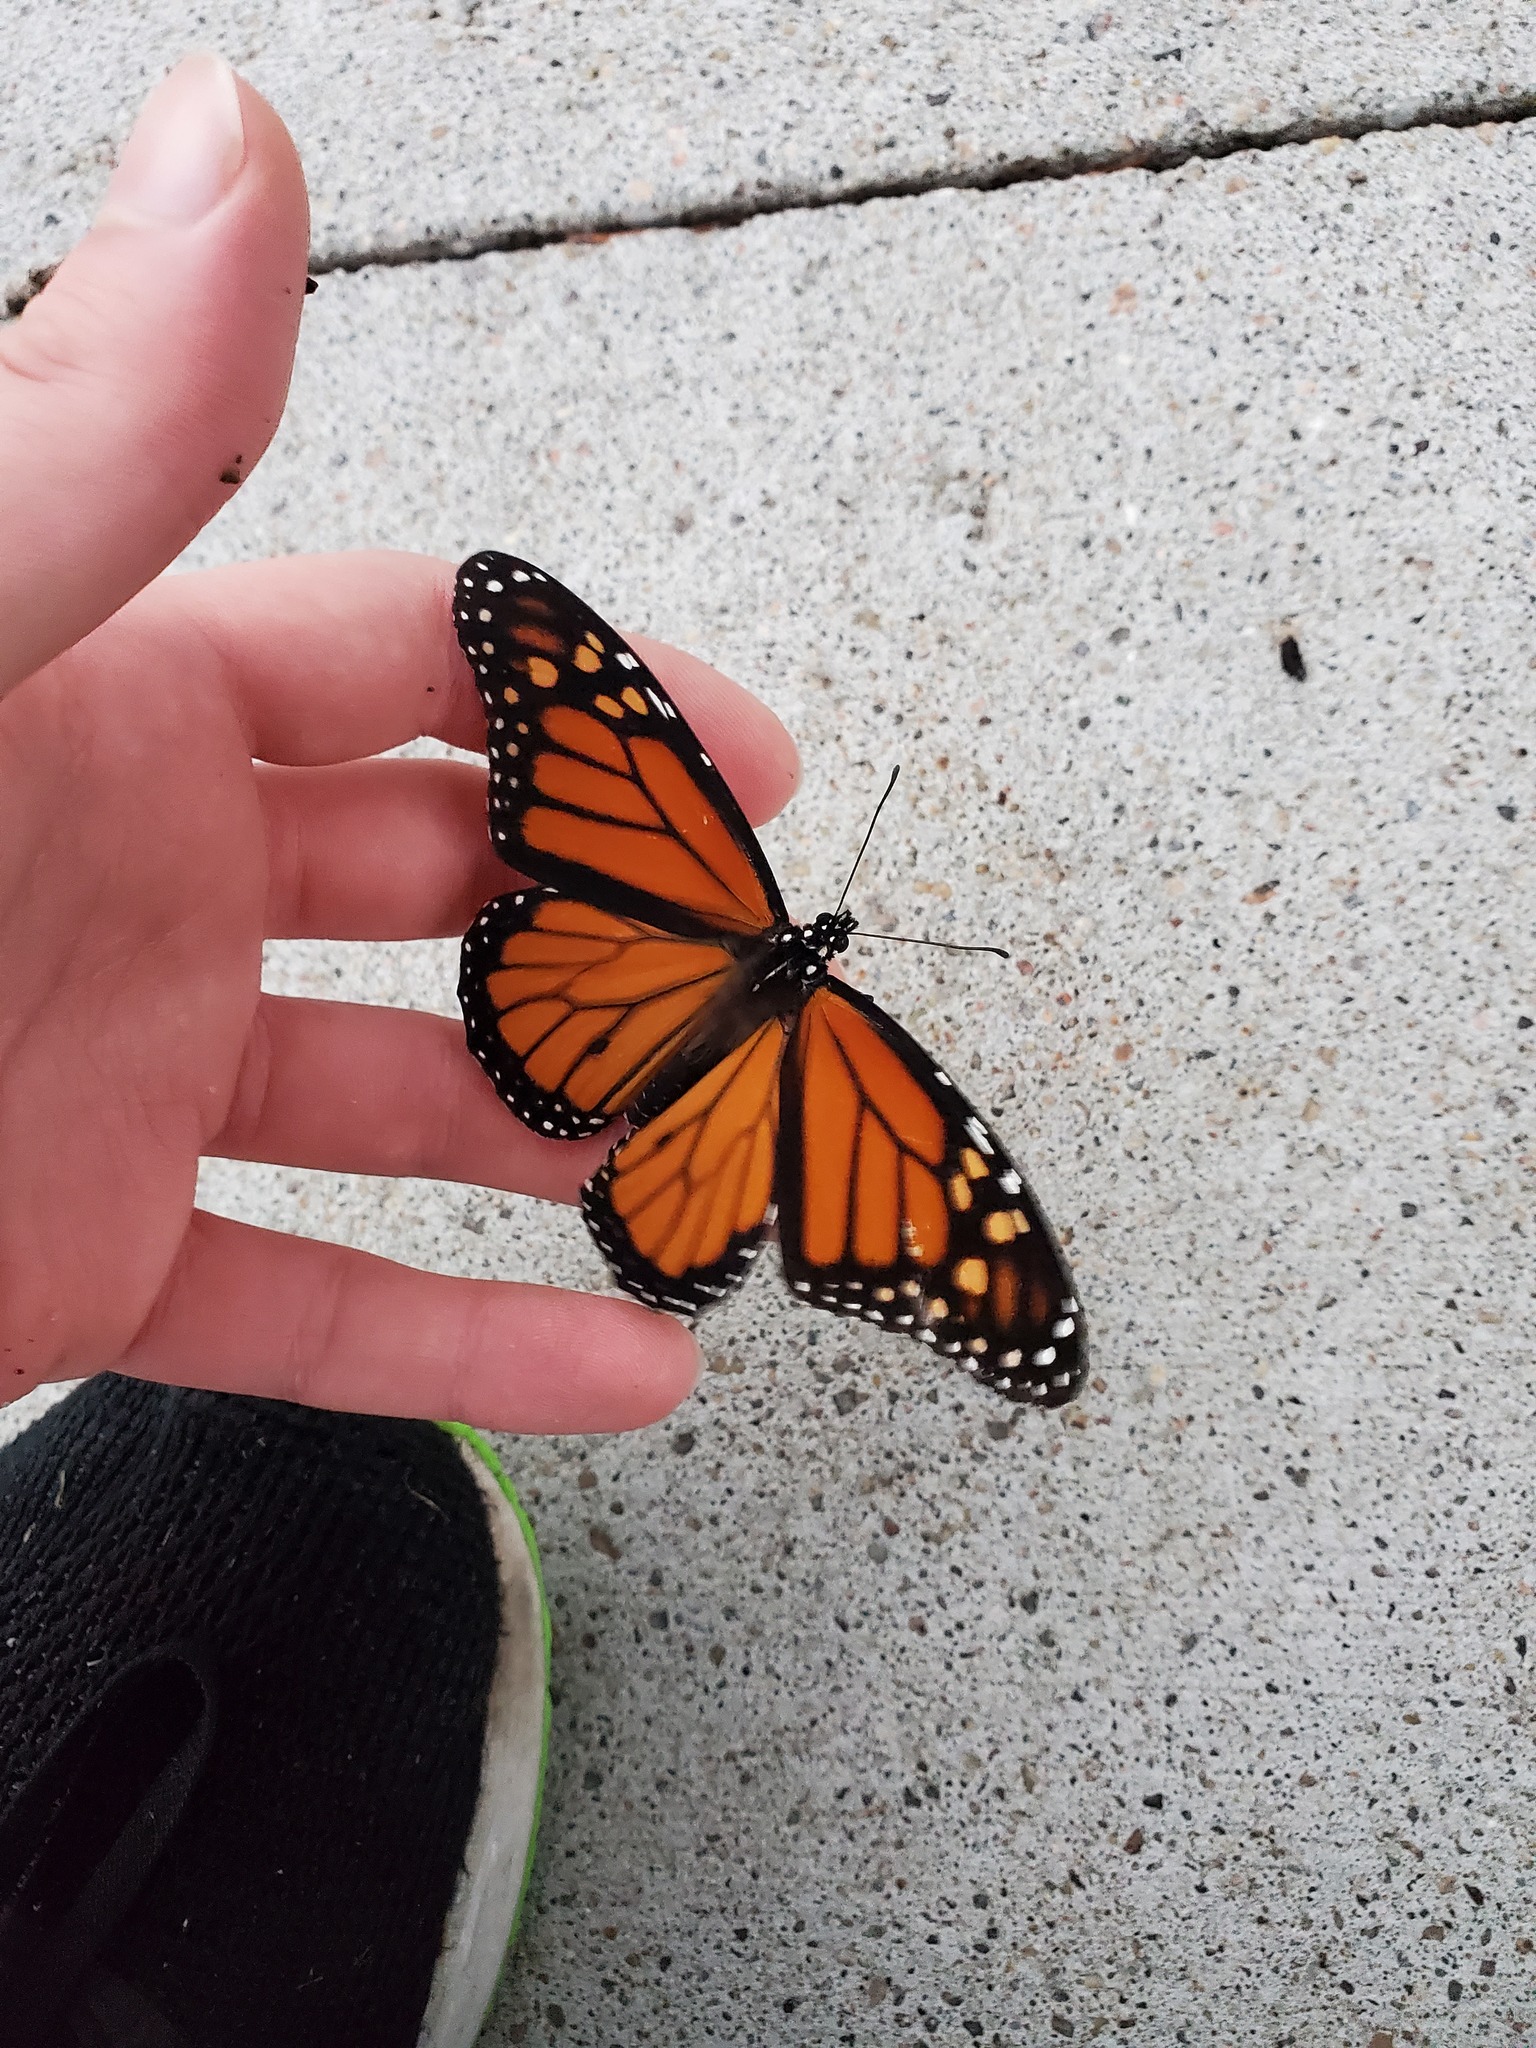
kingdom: Animalia
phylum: Arthropoda
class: Insecta
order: Lepidoptera
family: Nymphalidae
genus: Danaus
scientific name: Danaus plexippus
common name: Monarch
